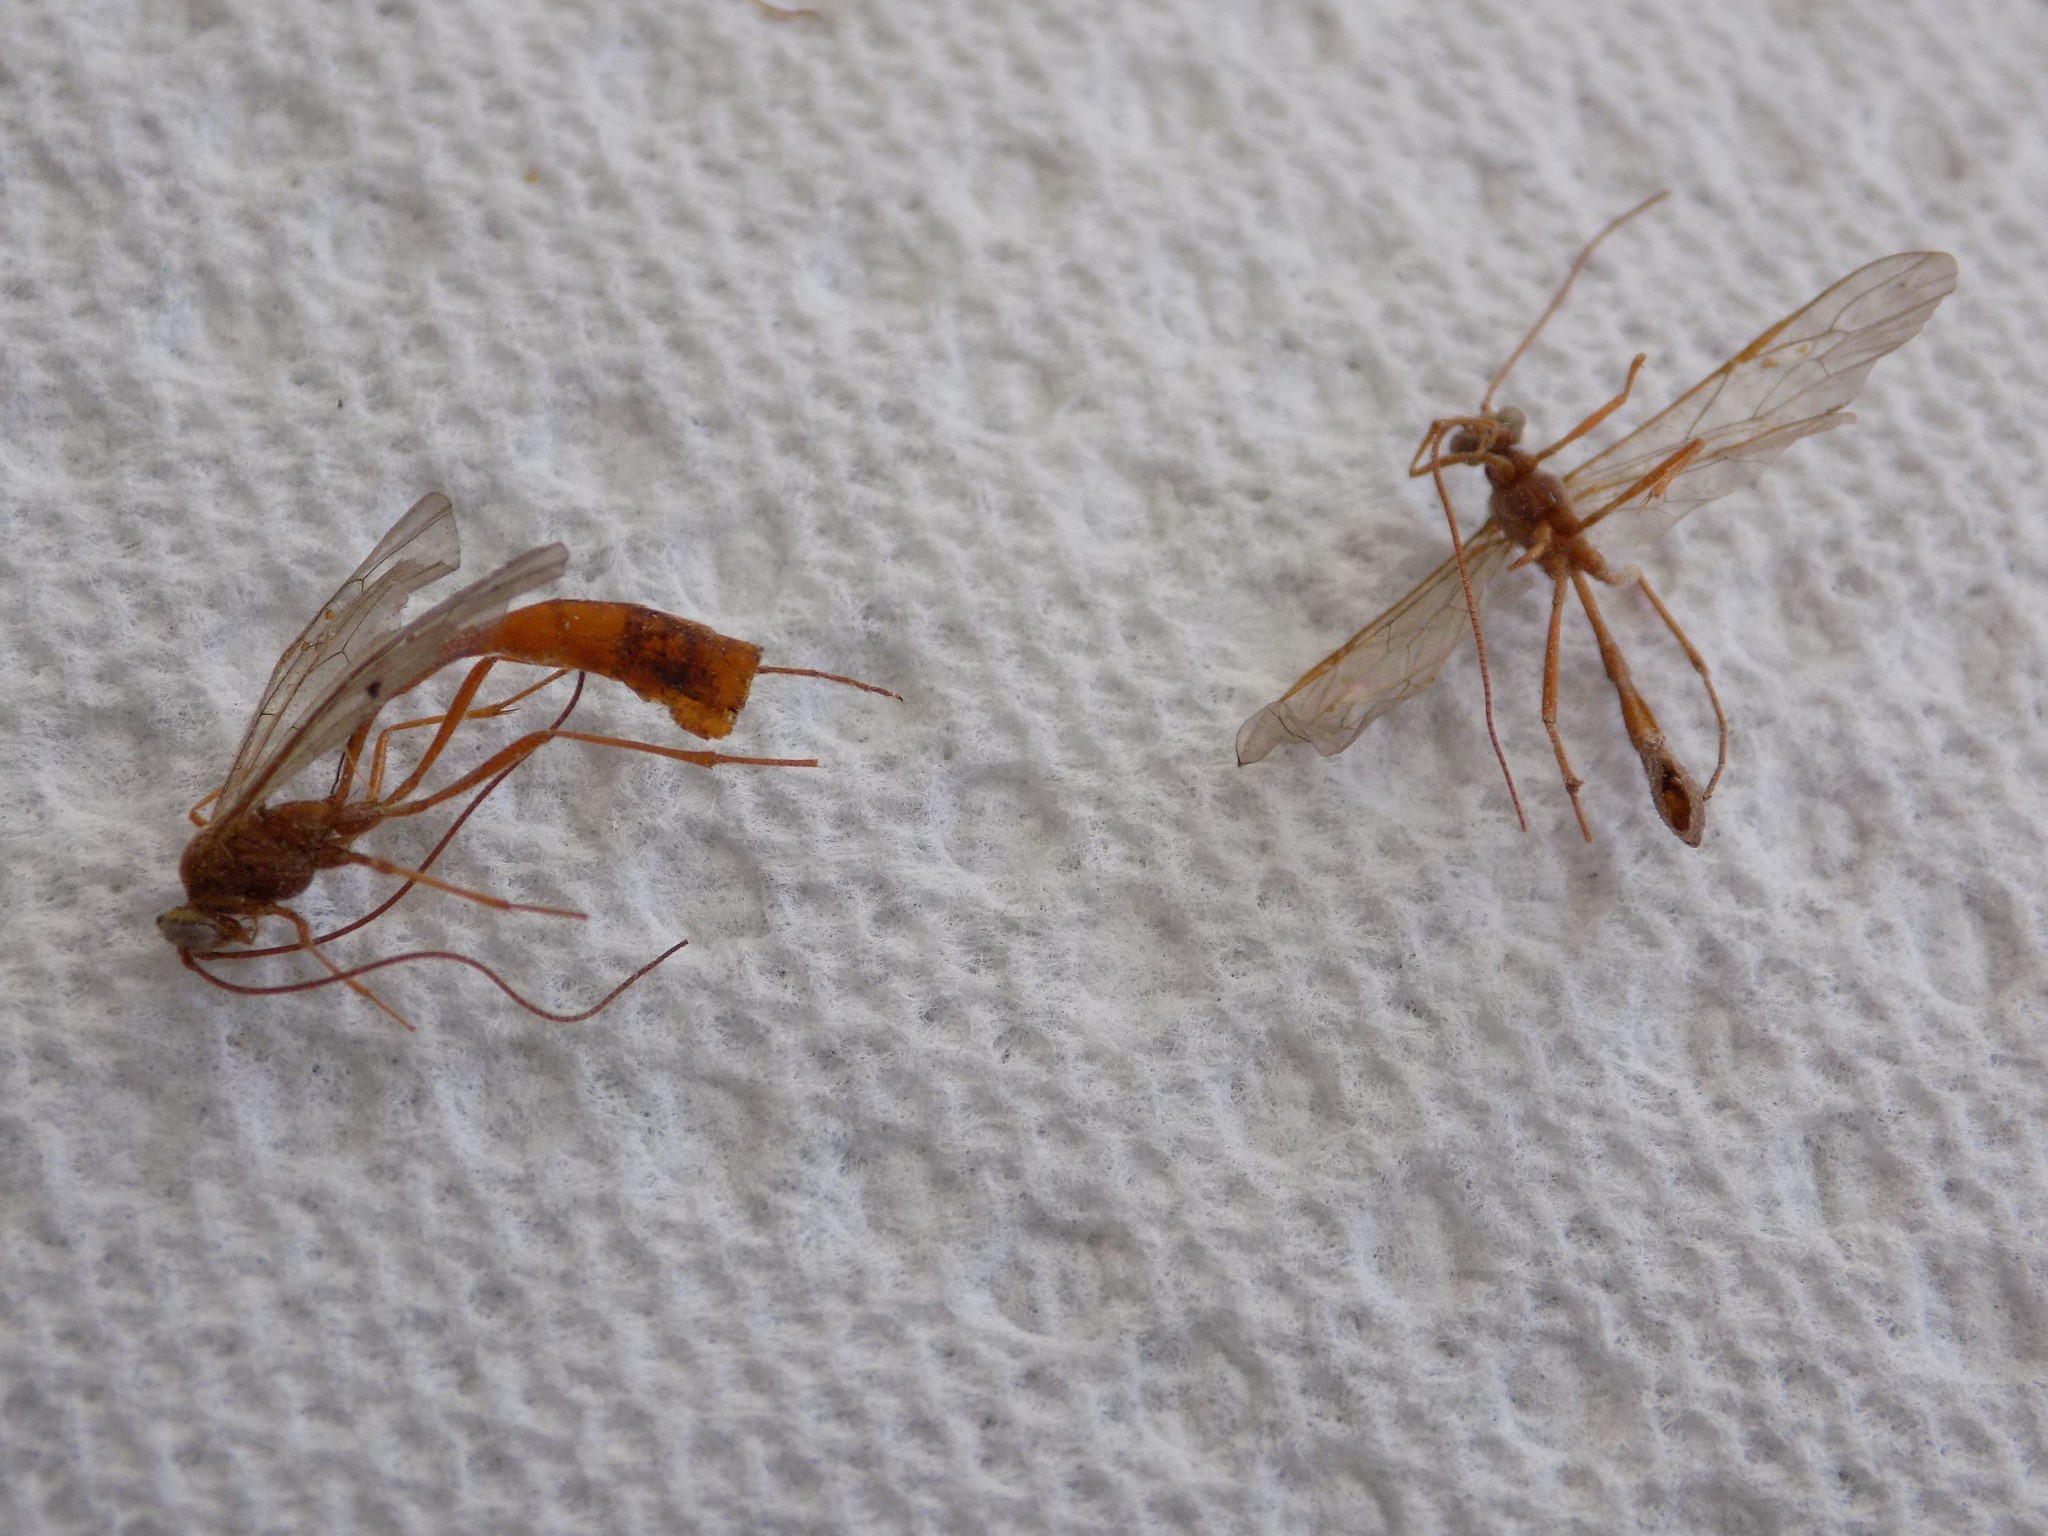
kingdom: Animalia
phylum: Arthropoda
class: Insecta
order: Hymenoptera
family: Ichneumonidae
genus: Enicospilus
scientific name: Enicospilus purgatus
